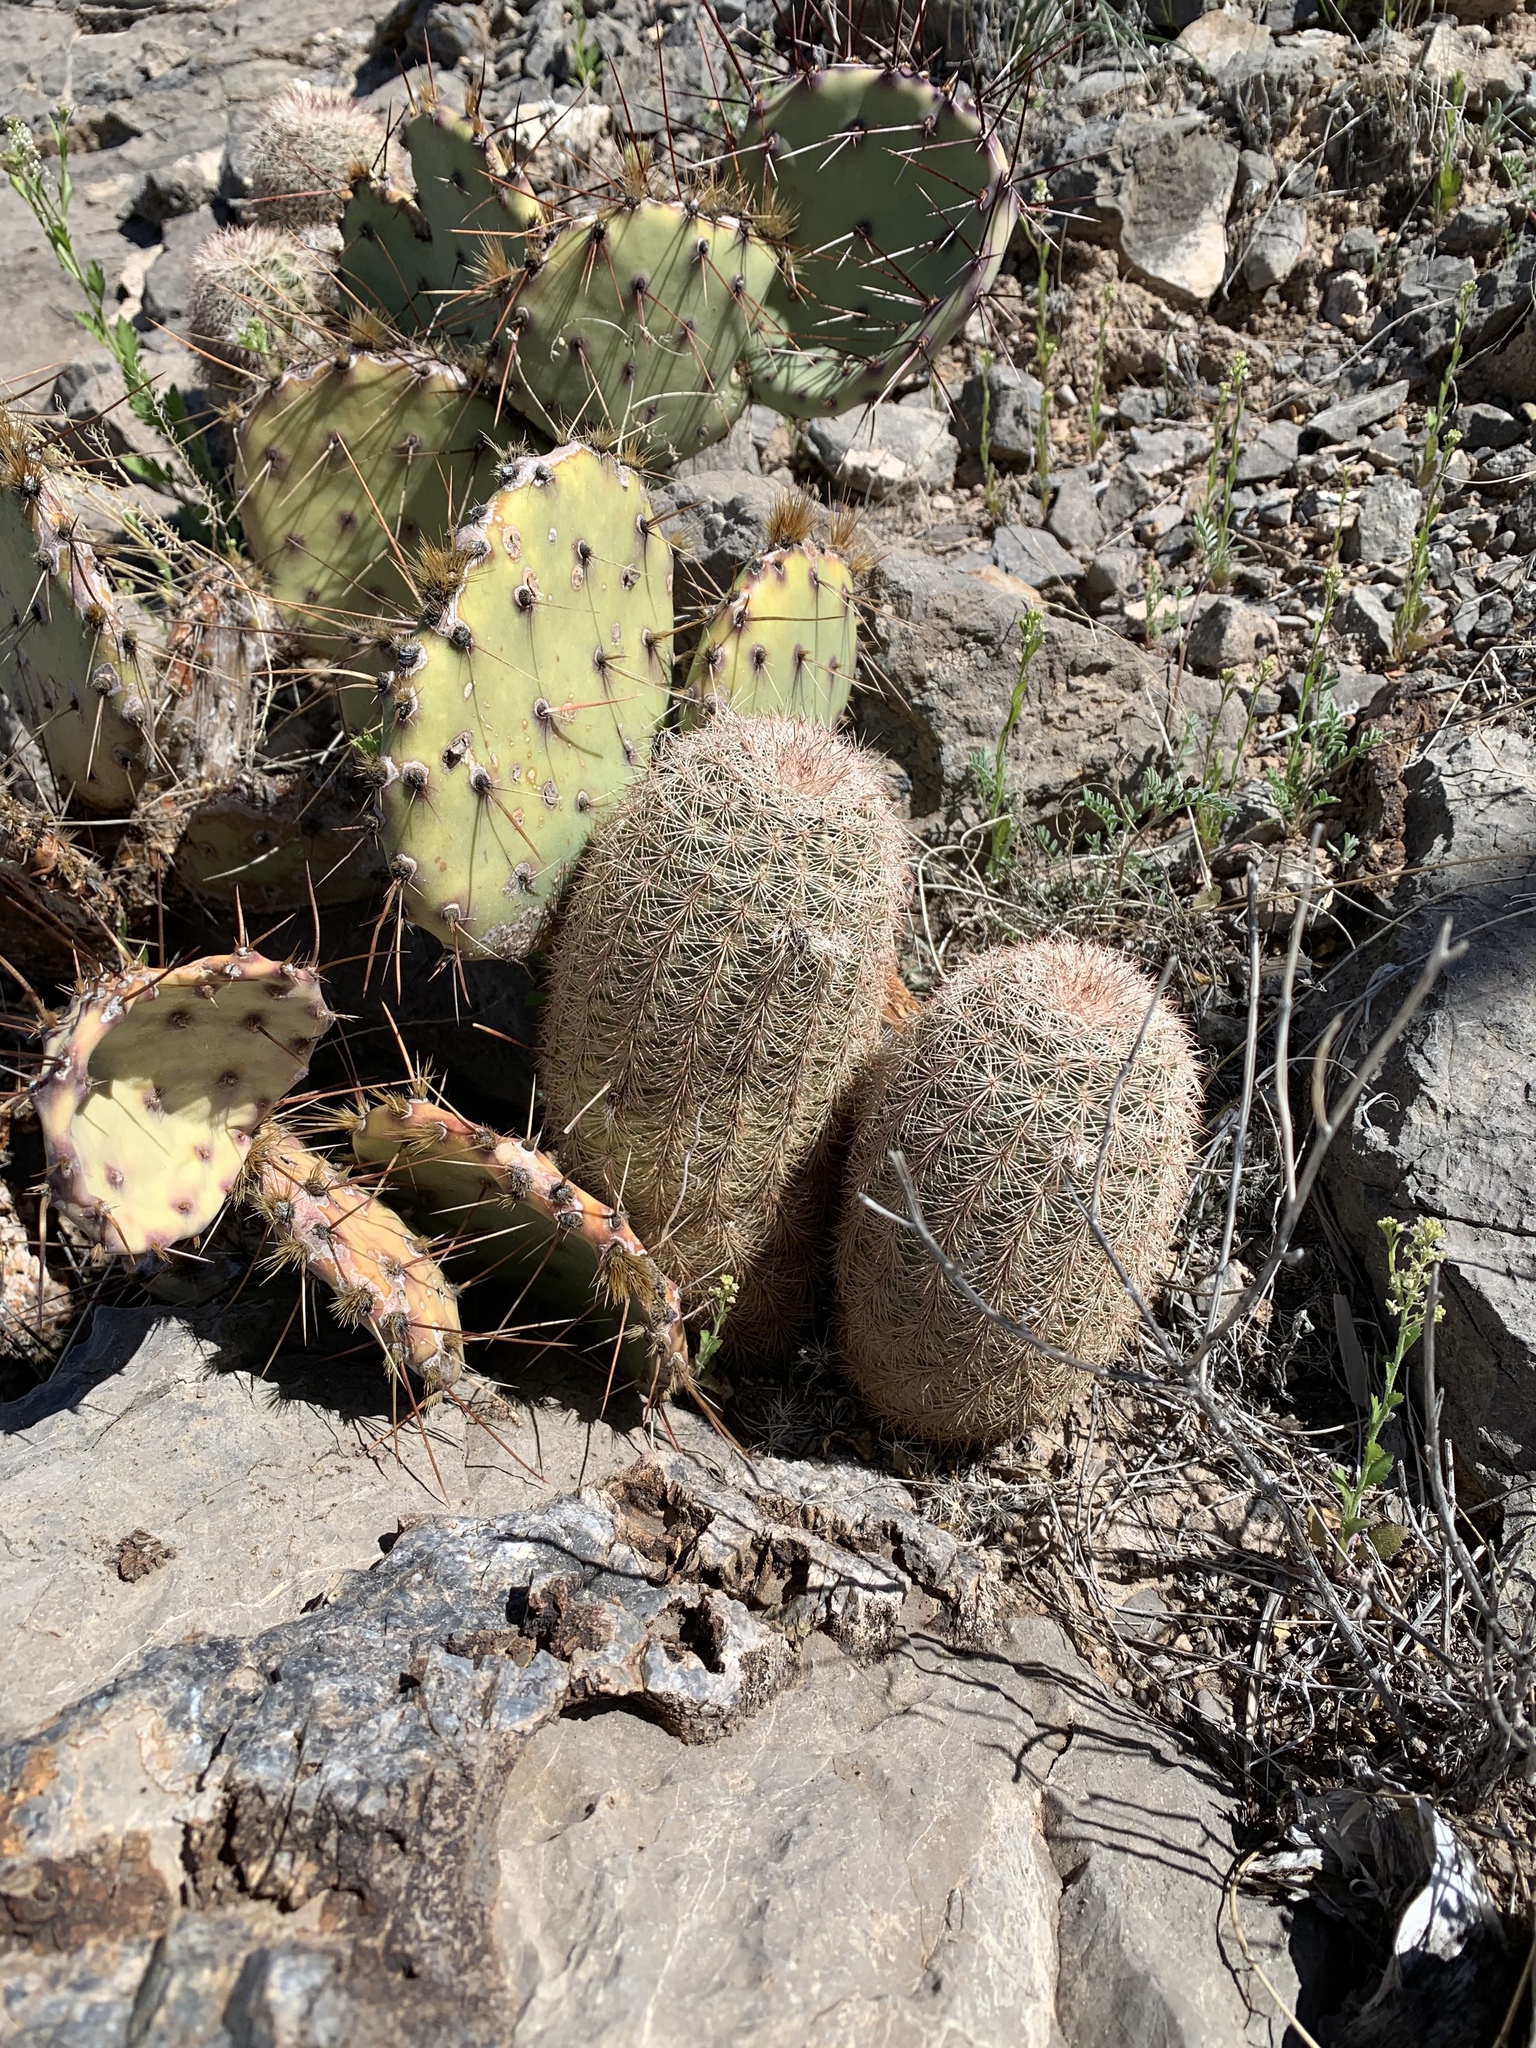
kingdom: Plantae
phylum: Tracheophyta
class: Magnoliopsida
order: Caryophyllales
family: Cactaceae
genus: Echinocereus
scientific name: Echinocereus dasyacanthus
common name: Spiny hedgehog cactus
